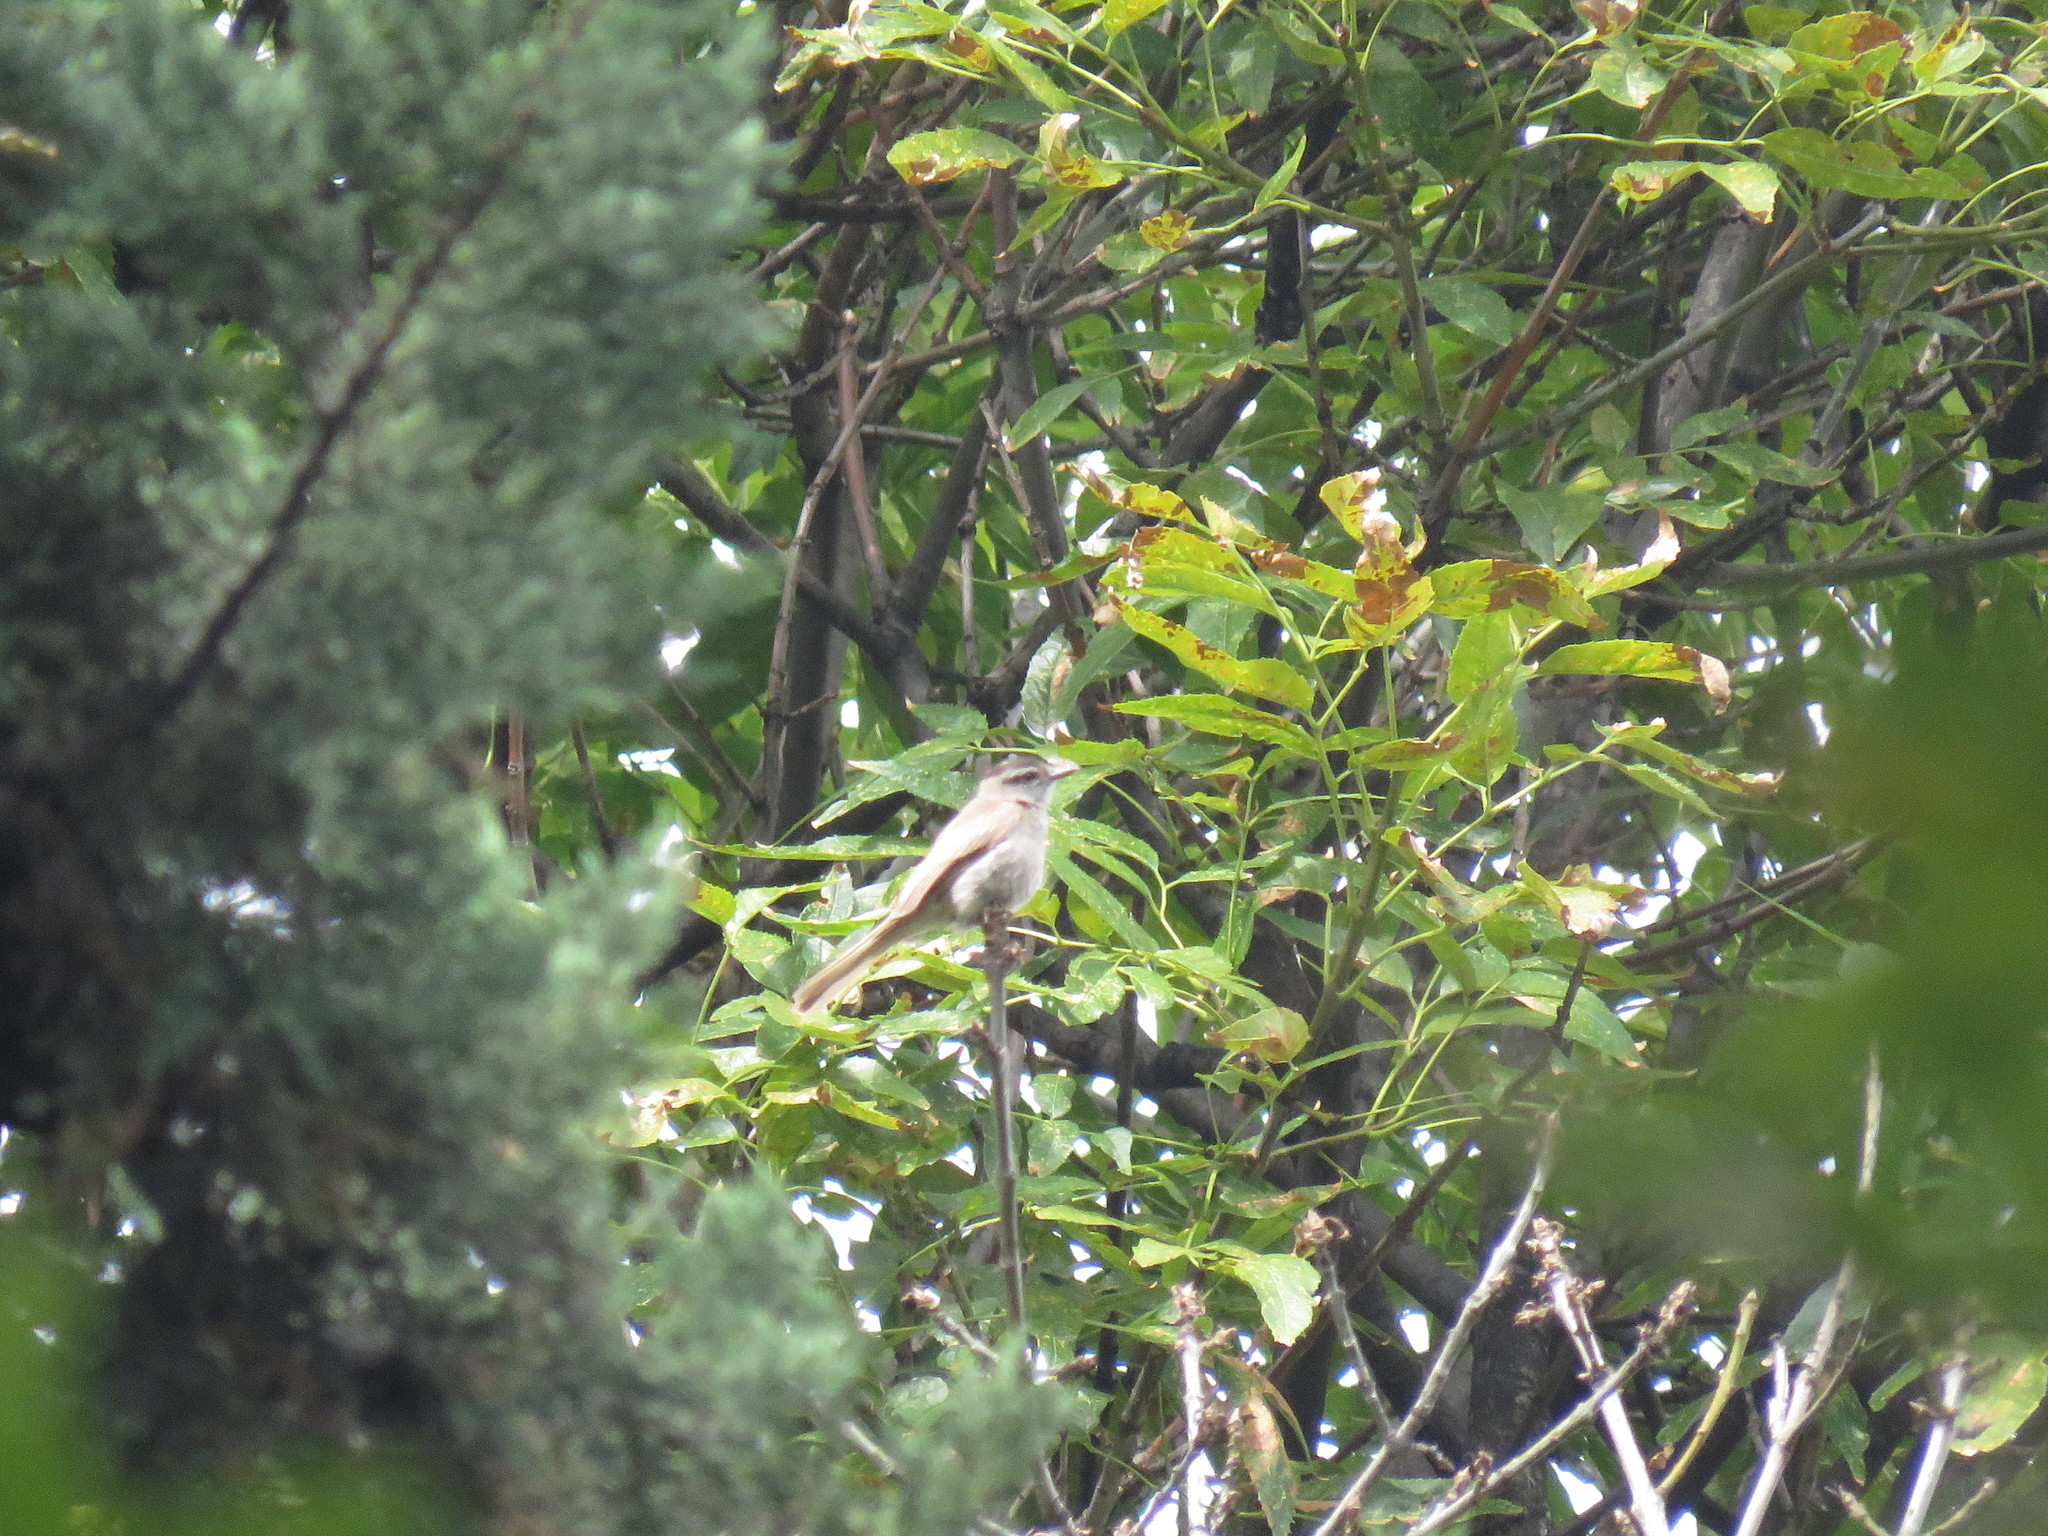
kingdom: Animalia
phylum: Chordata
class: Aves
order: Passeriformes
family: Tyrannidae
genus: Empidonomus
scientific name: Empidonomus aurantioatrocristatus
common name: Crowned slaty flycatcher
